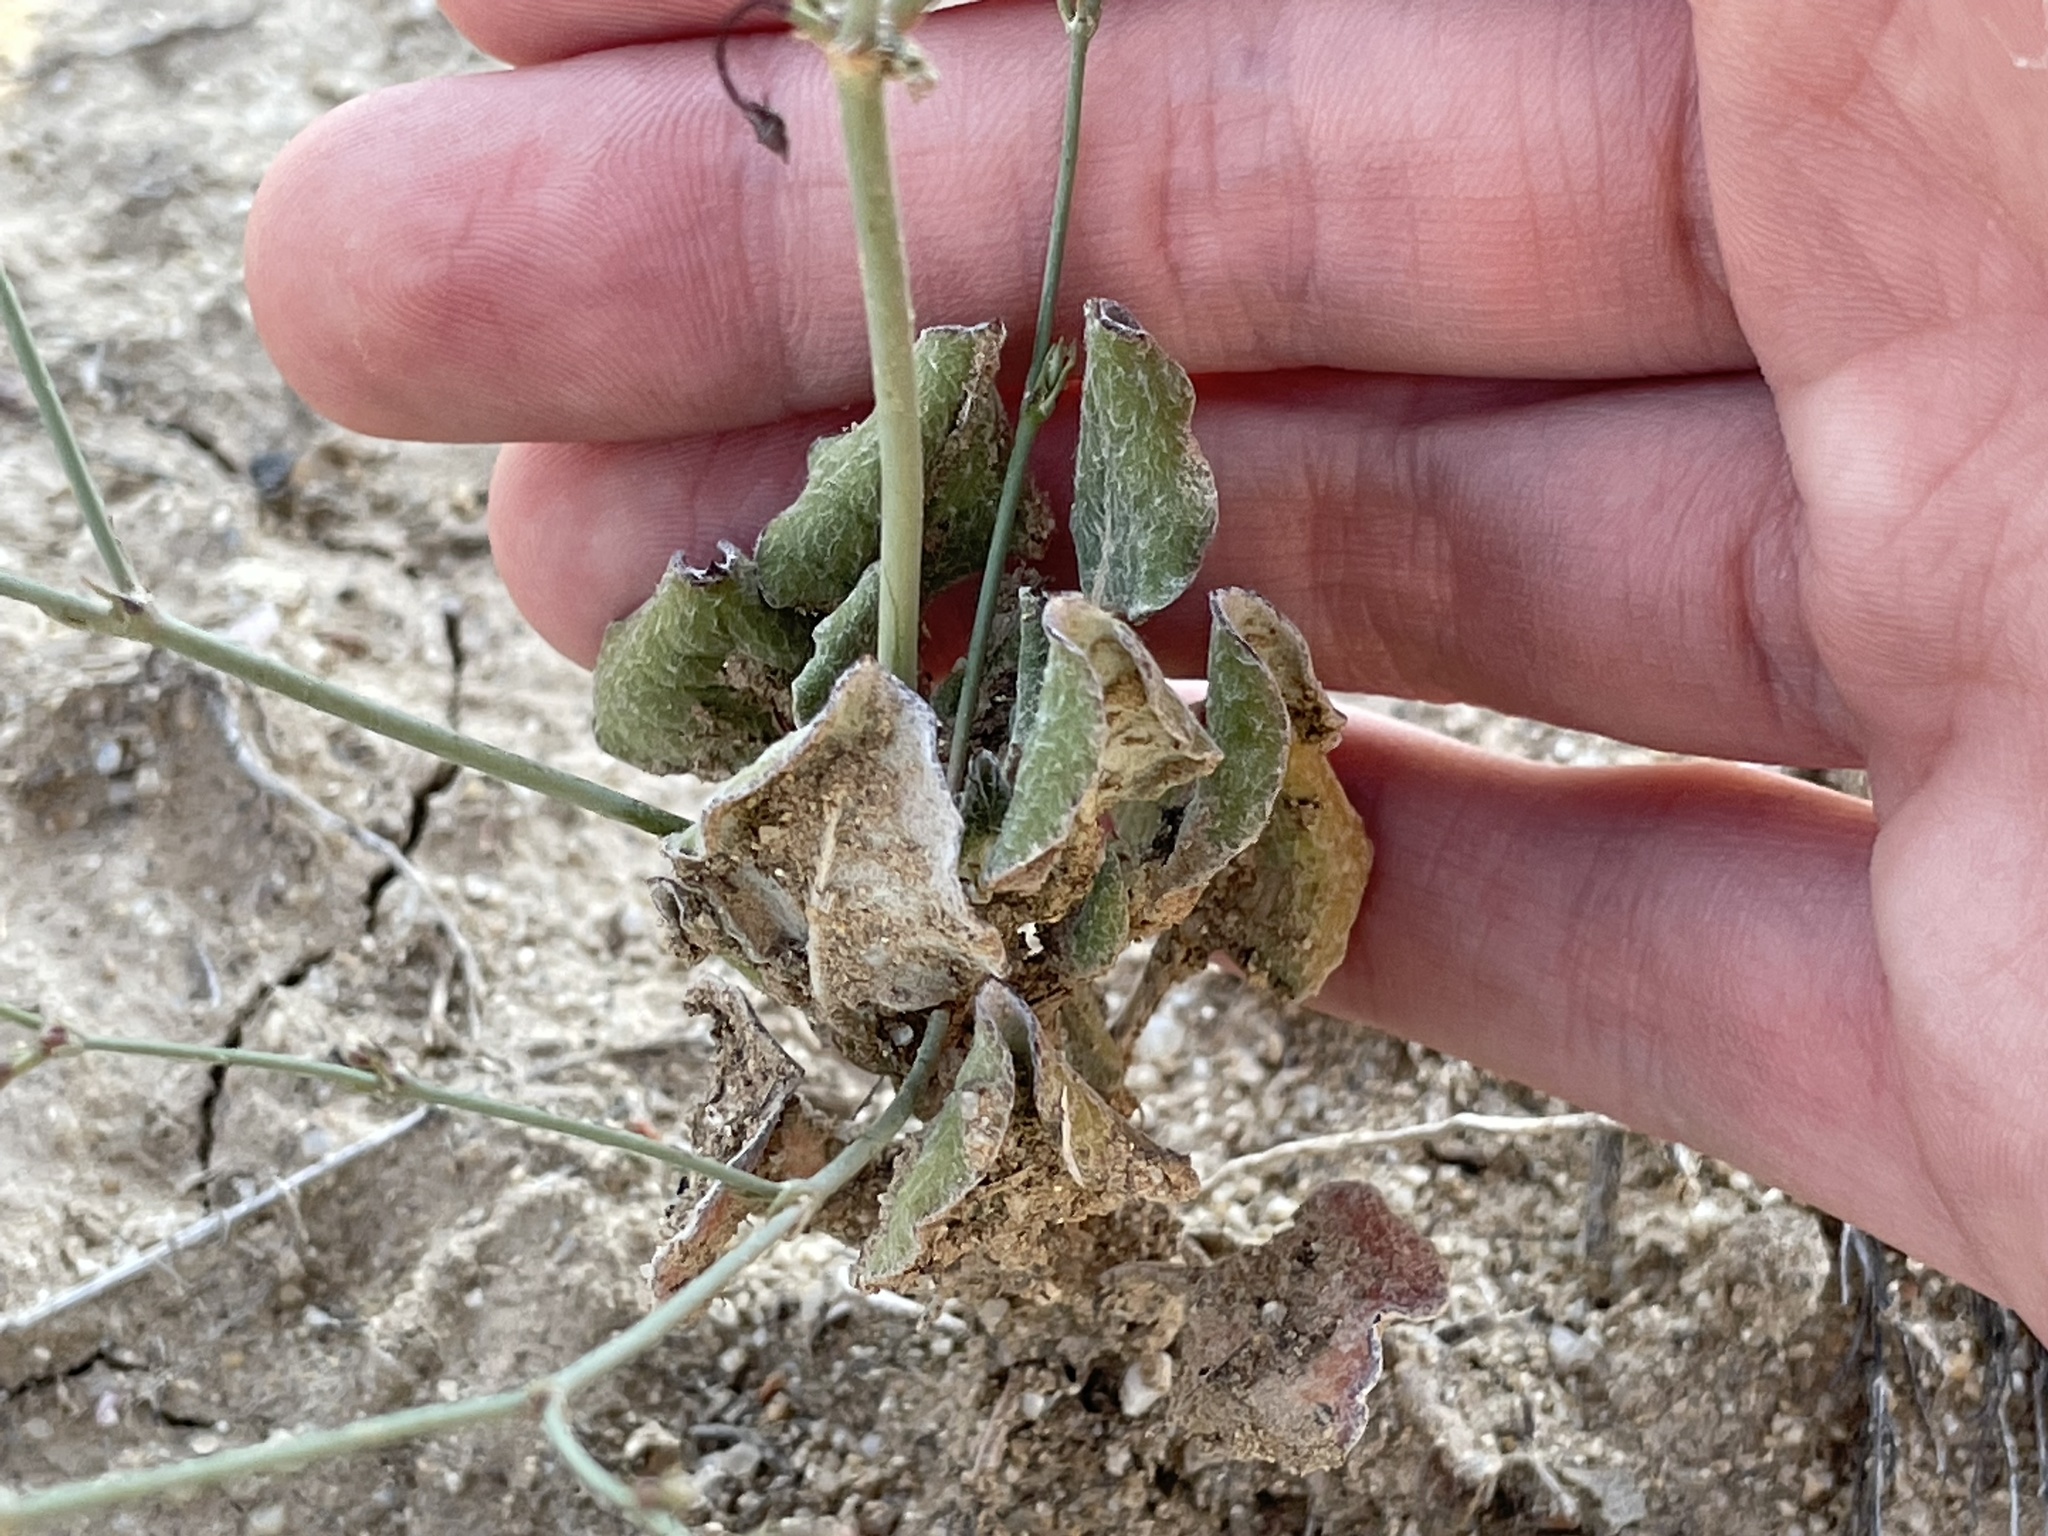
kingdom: Plantae
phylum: Tracheophyta
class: Magnoliopsida
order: Caryophyllales
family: Polygonaceae
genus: Eriogonum
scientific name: Eriogonum cernuum
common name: Nodding wild buckwheat
